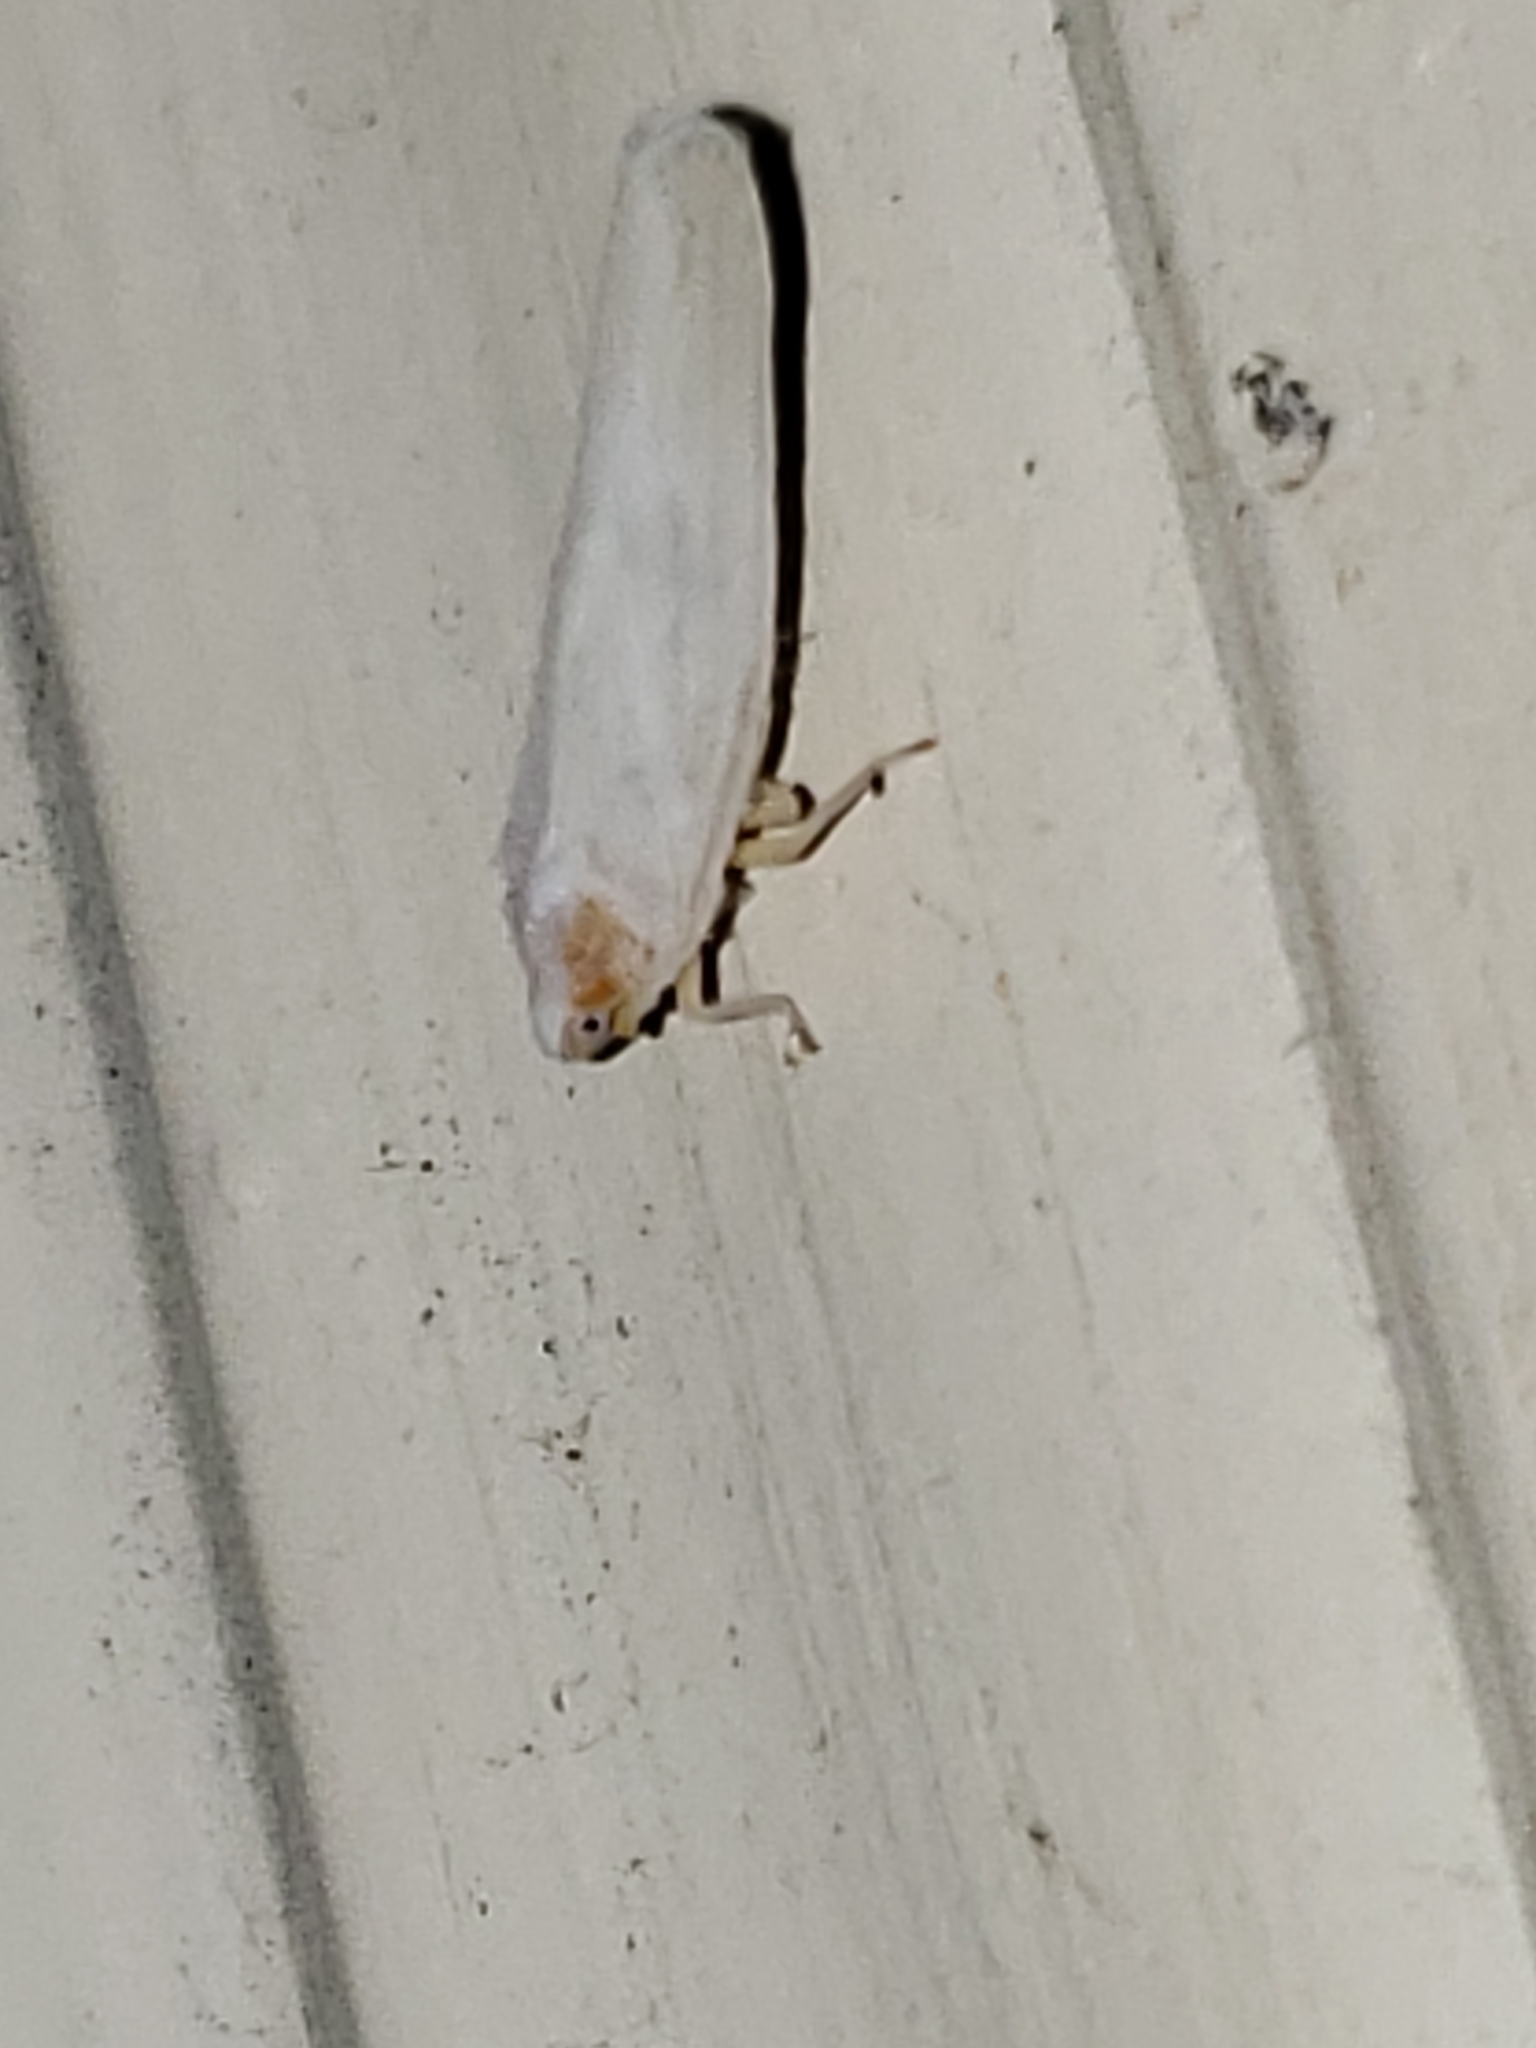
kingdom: Animalia
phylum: Arthropoda
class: Insecta
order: Hemiptera
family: Derbidae
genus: Neocenchrea
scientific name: Neocenchrea heidemanni
